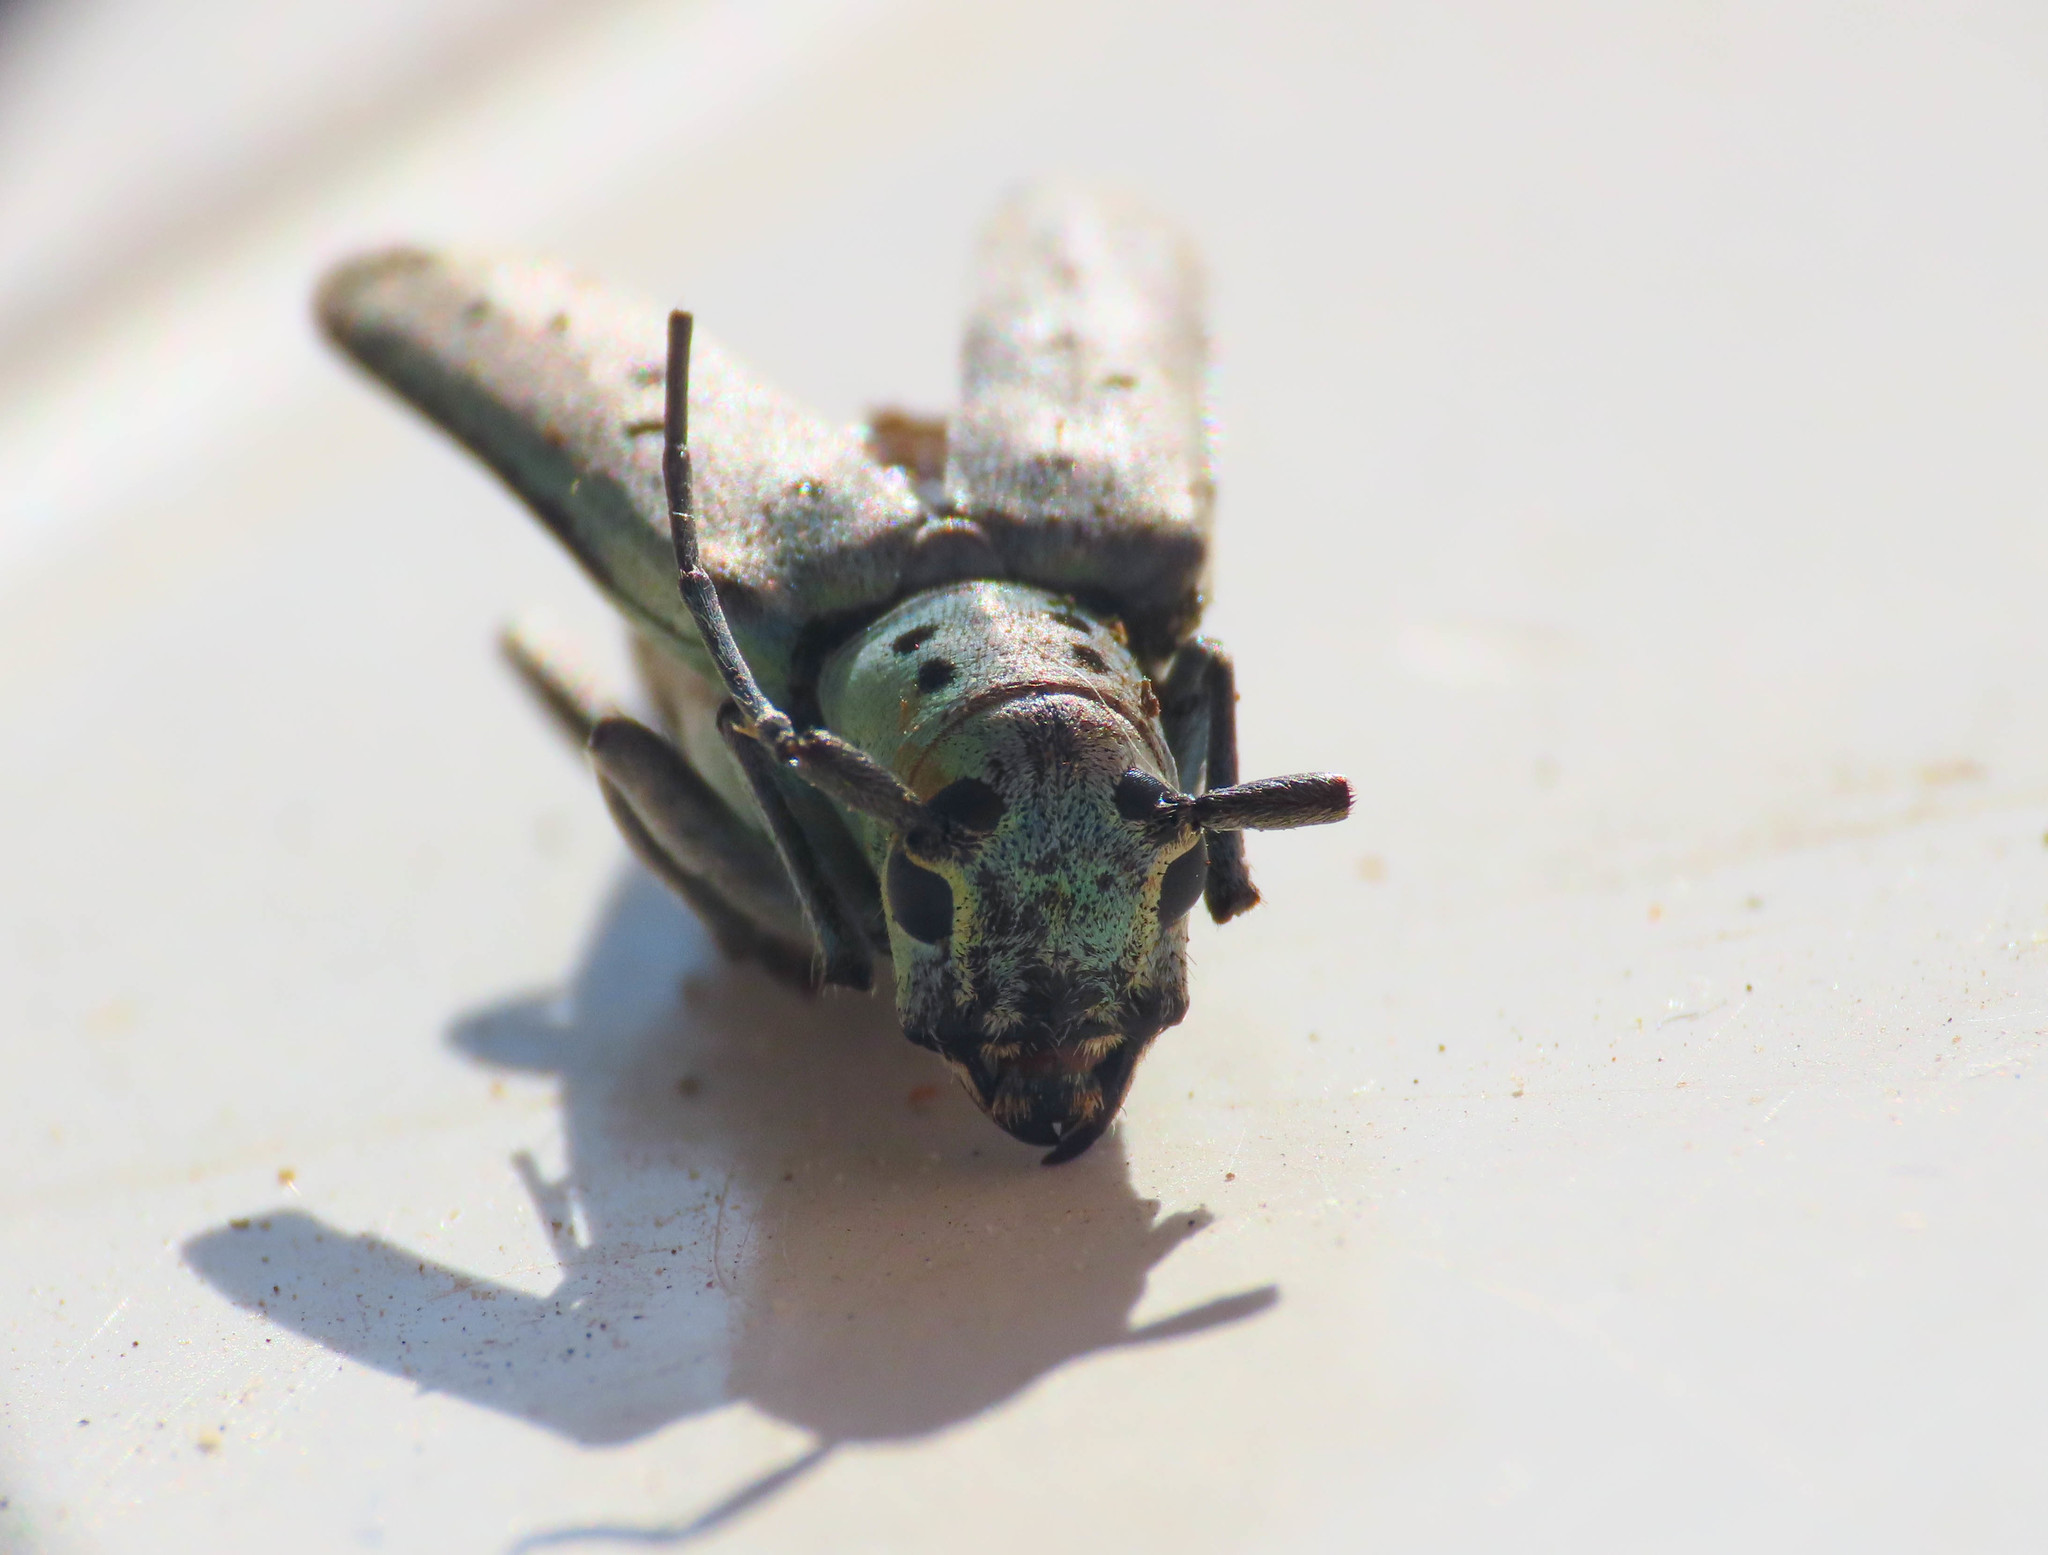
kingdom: Animalia
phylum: Arthropoda
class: Insecta
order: Coleoptera
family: Cerambycidae
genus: Saperda
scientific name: Saperda punctata
